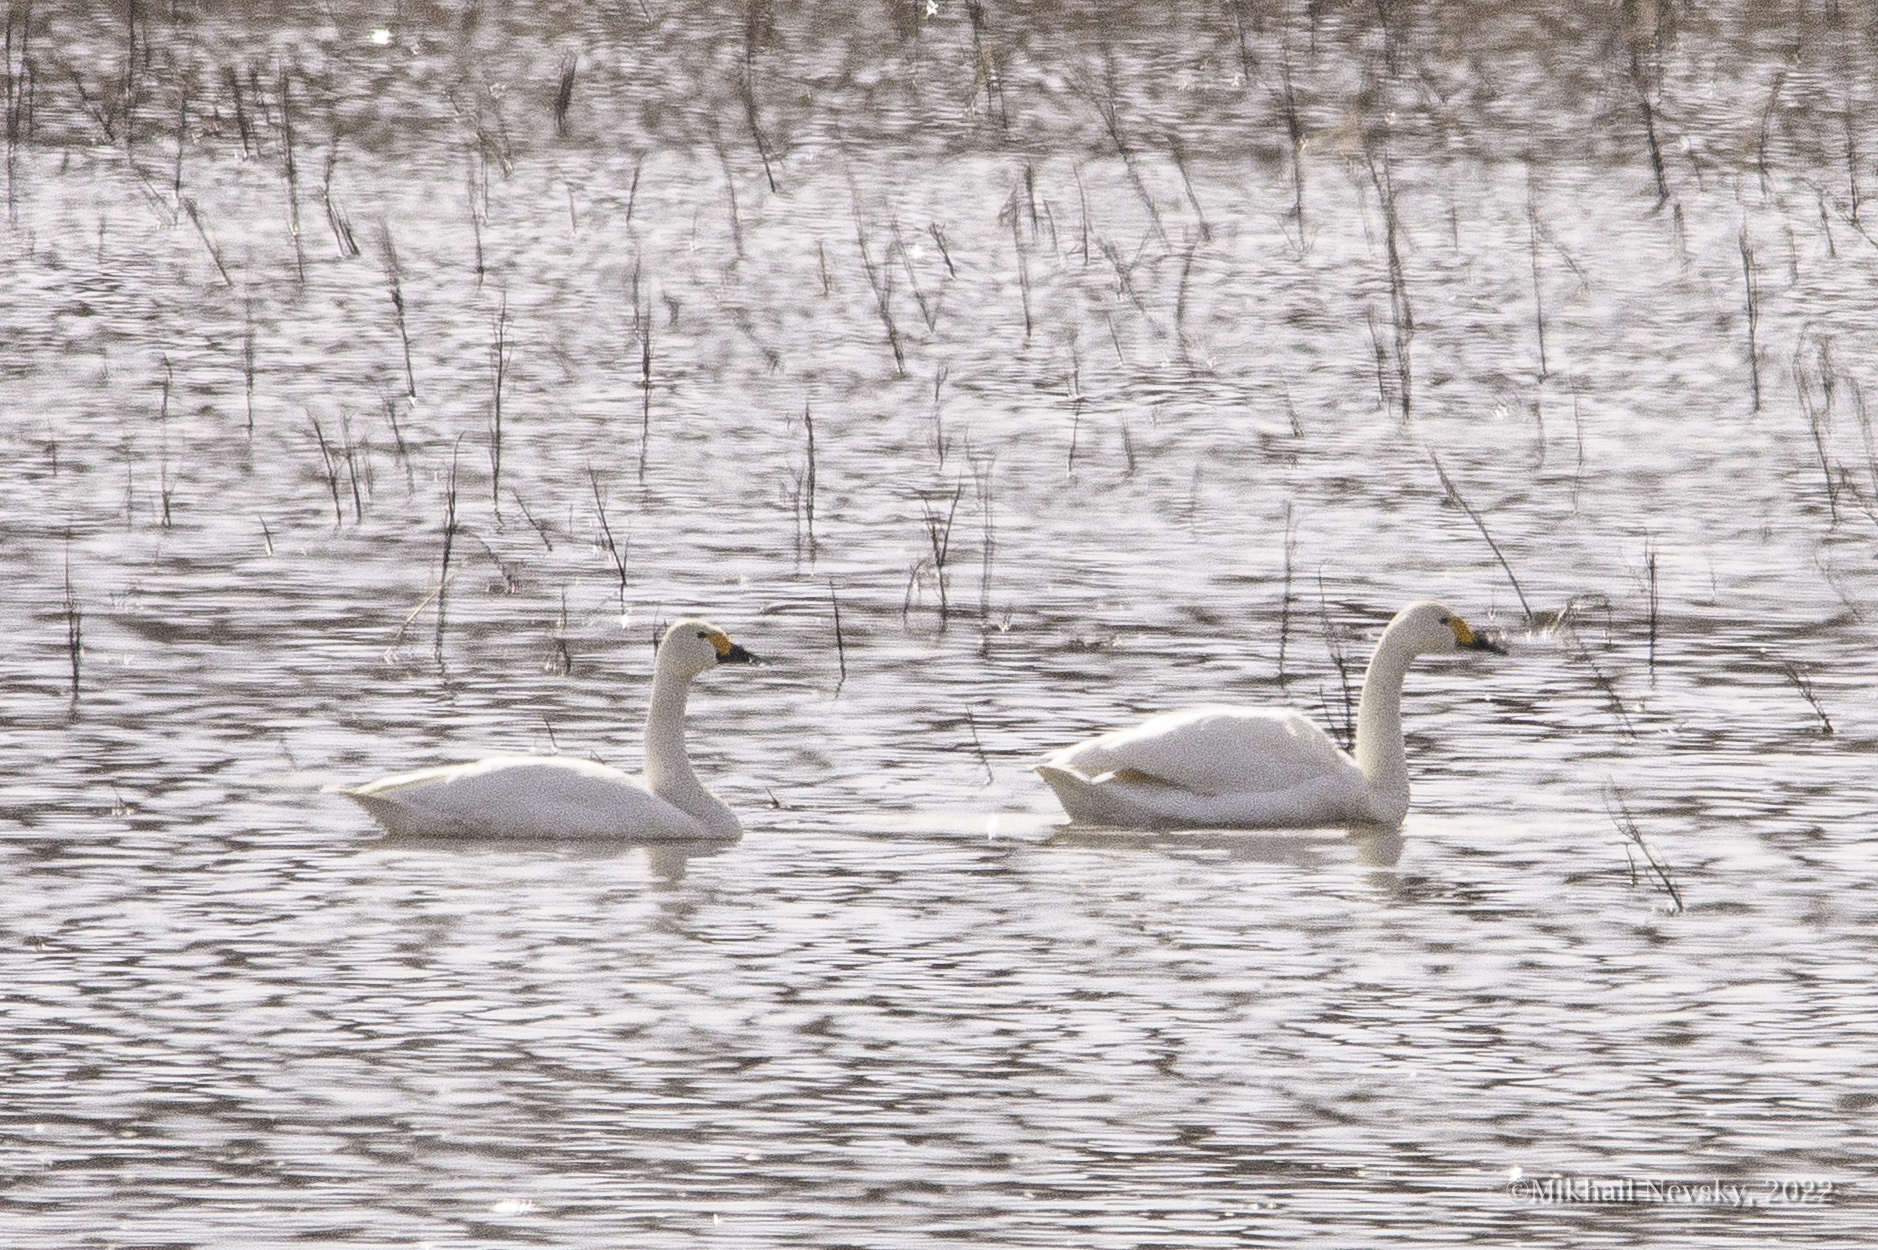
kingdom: Animalia
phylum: Chordata
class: Aves
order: Anseriformes
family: Anatidae
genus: Cygnus
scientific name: Cygnus columbianus
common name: Tundra swan
